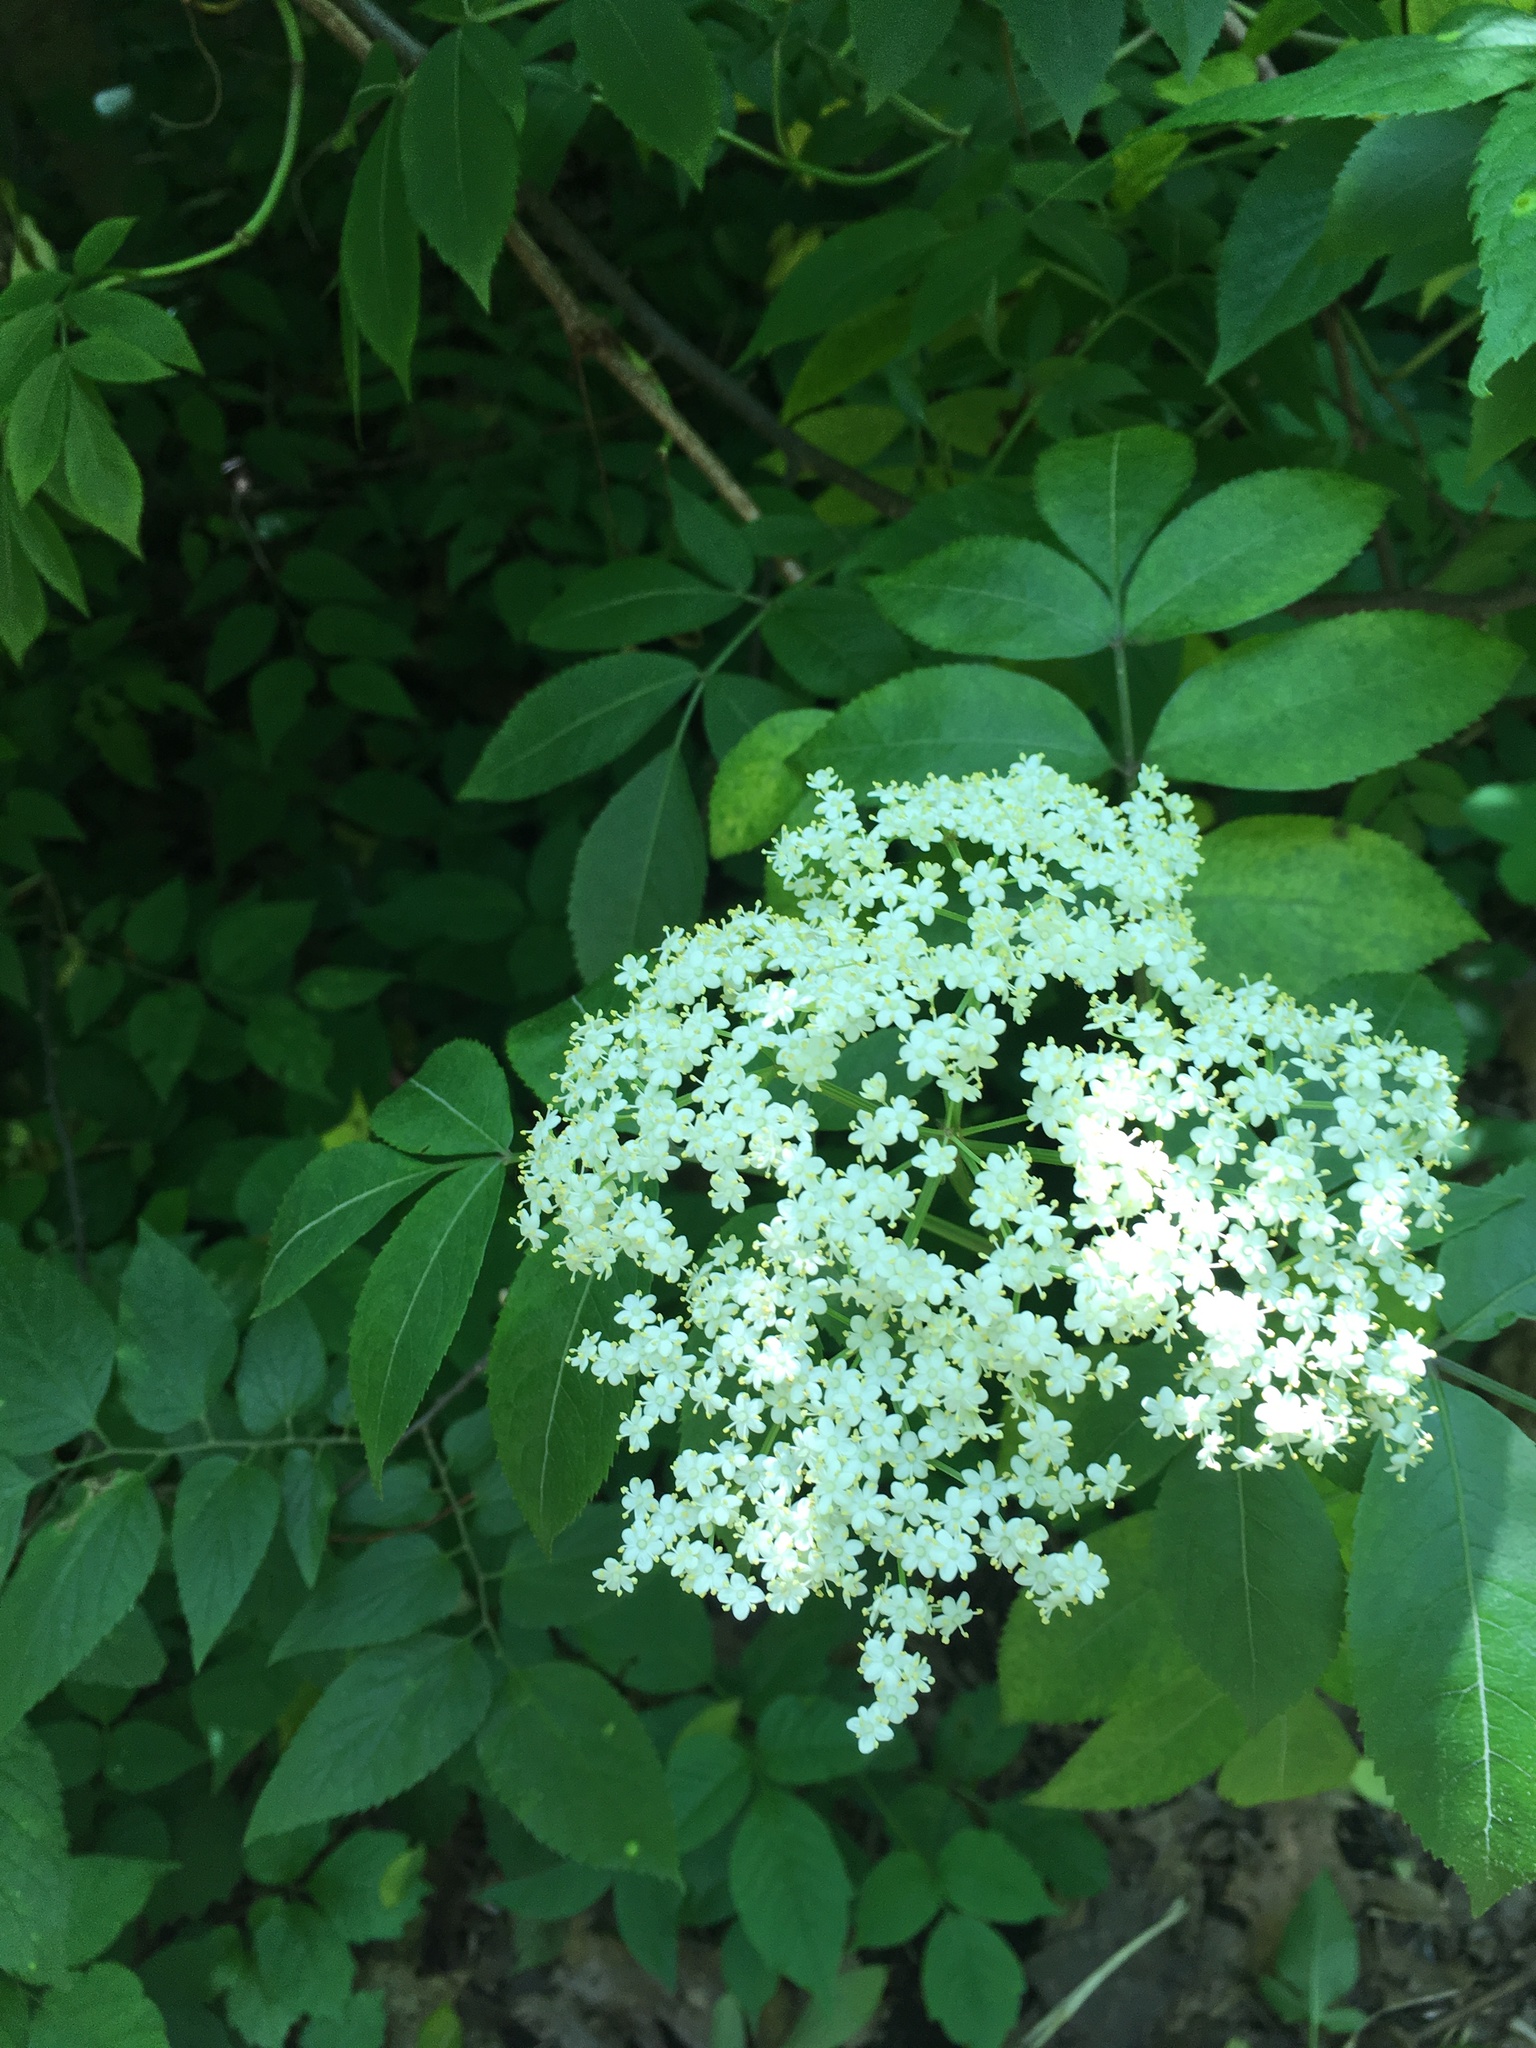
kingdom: Plantae
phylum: Tracheophyta
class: Magnoliopsida
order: Dipsacales
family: Viburnaceae
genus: Sambucus
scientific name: Sambucus canadensis
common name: American elder
